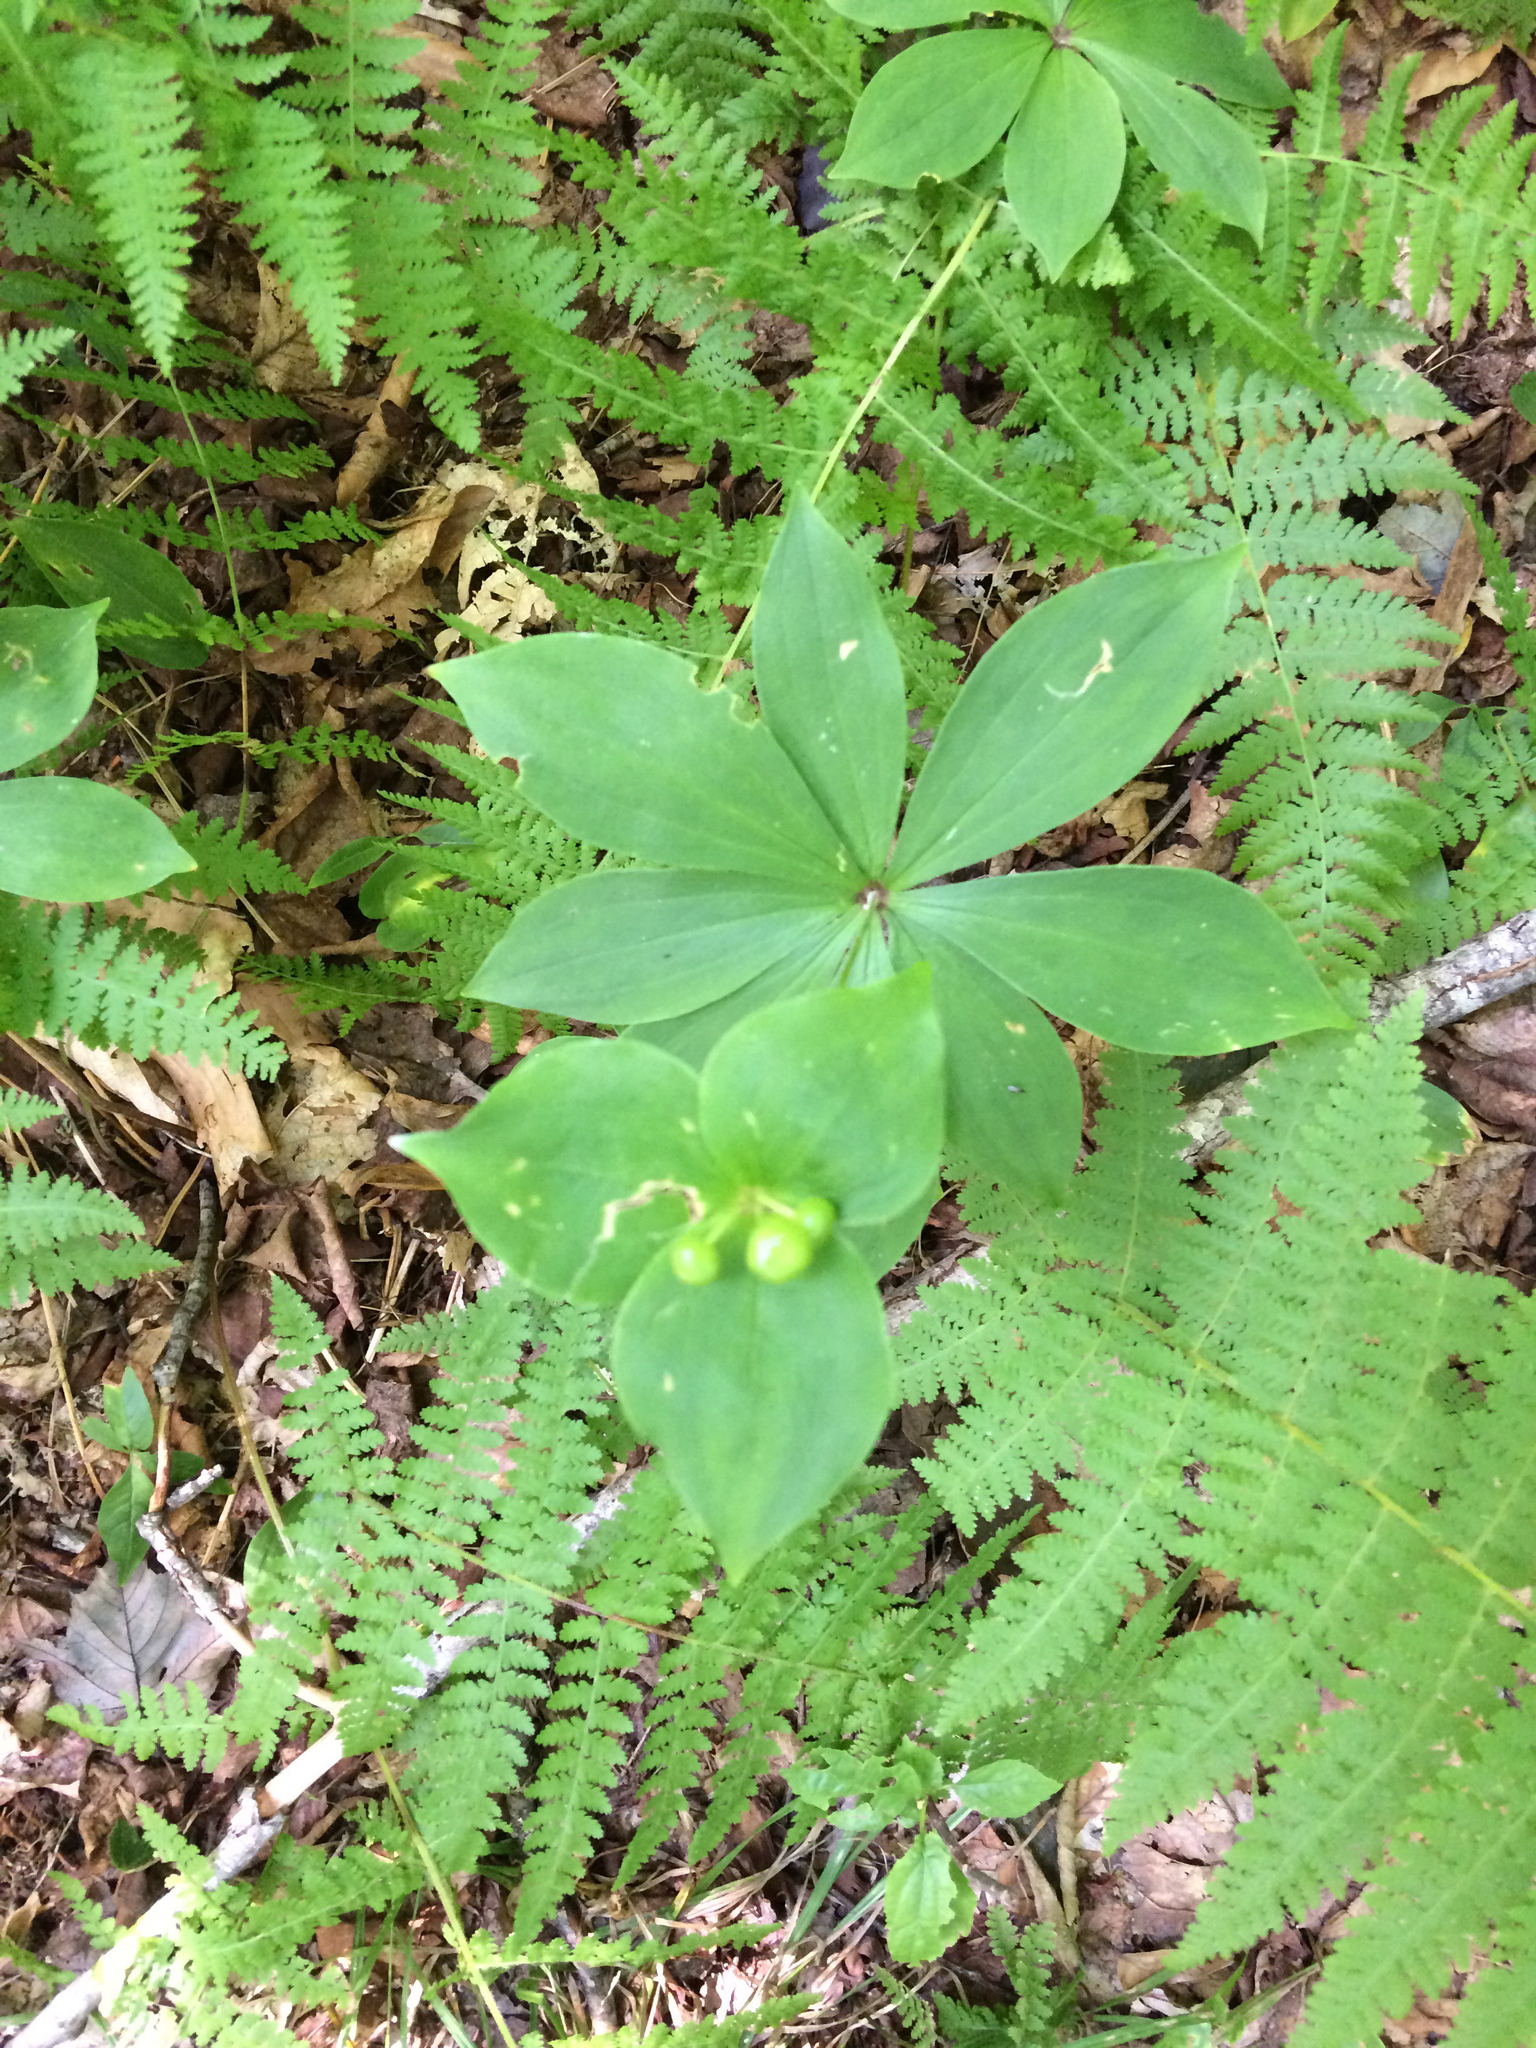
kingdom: Plantae
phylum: Tracheophyta
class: Liliopsida
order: Liliales
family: Liliaceae
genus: Medeola
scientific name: Medeola virginiana
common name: Indian cucumber-root
